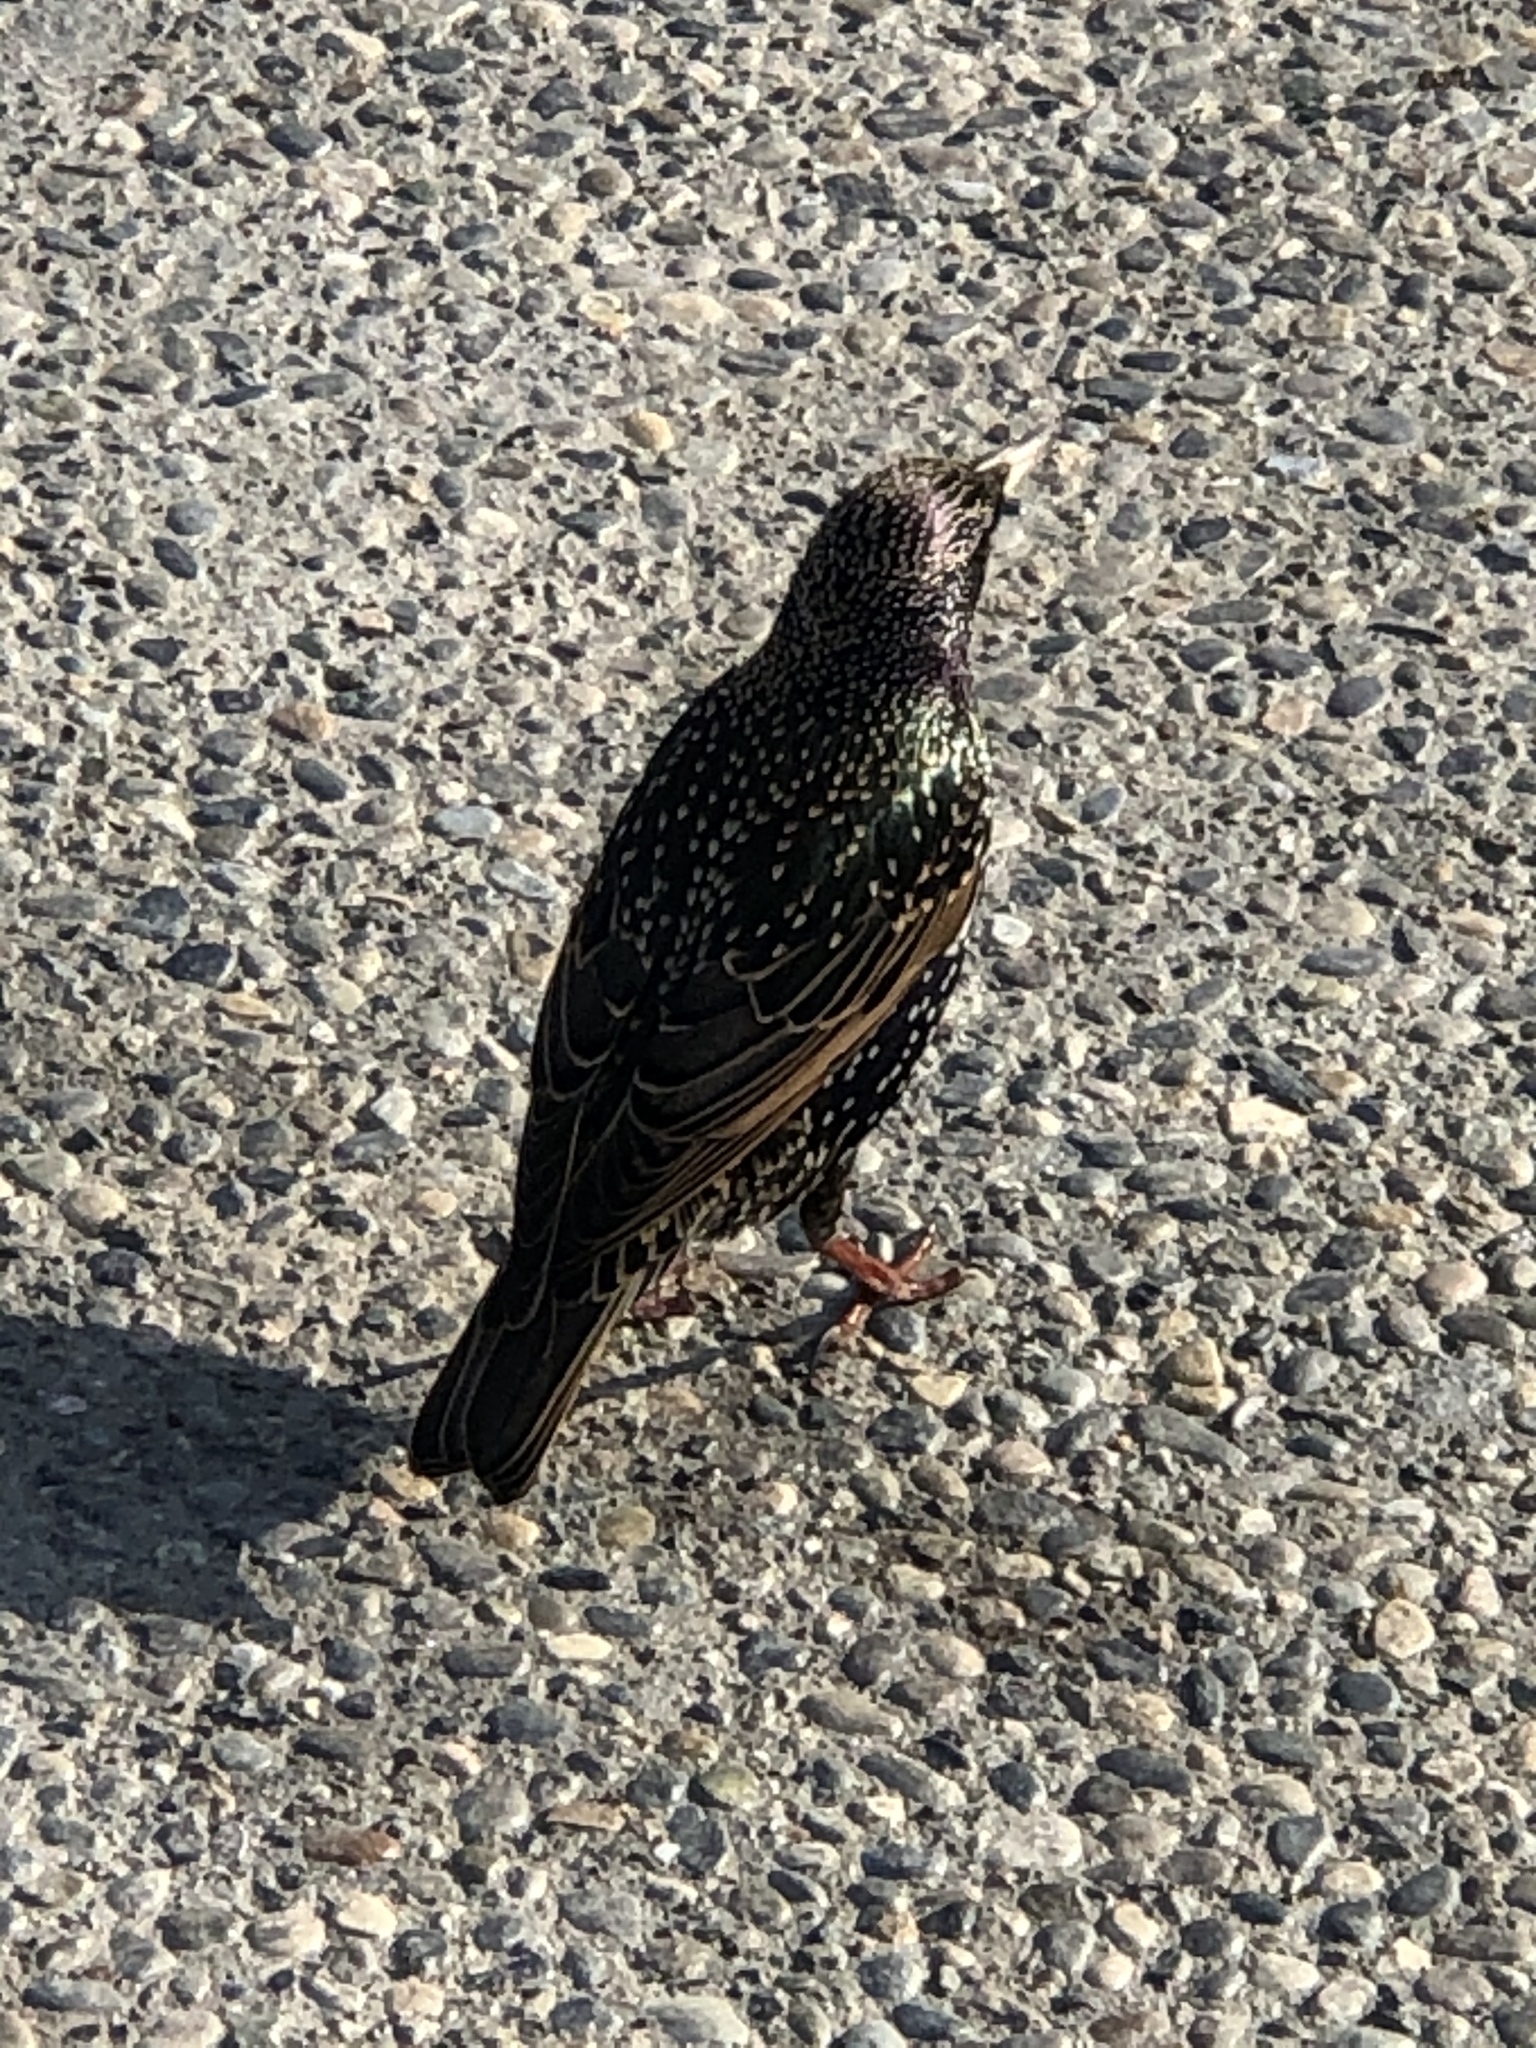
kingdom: Animalia
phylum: Chordata
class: Aves
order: Passeriformes
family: Sturnidae
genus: Sturnus
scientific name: Sturnus vulgaris
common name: Common starling
